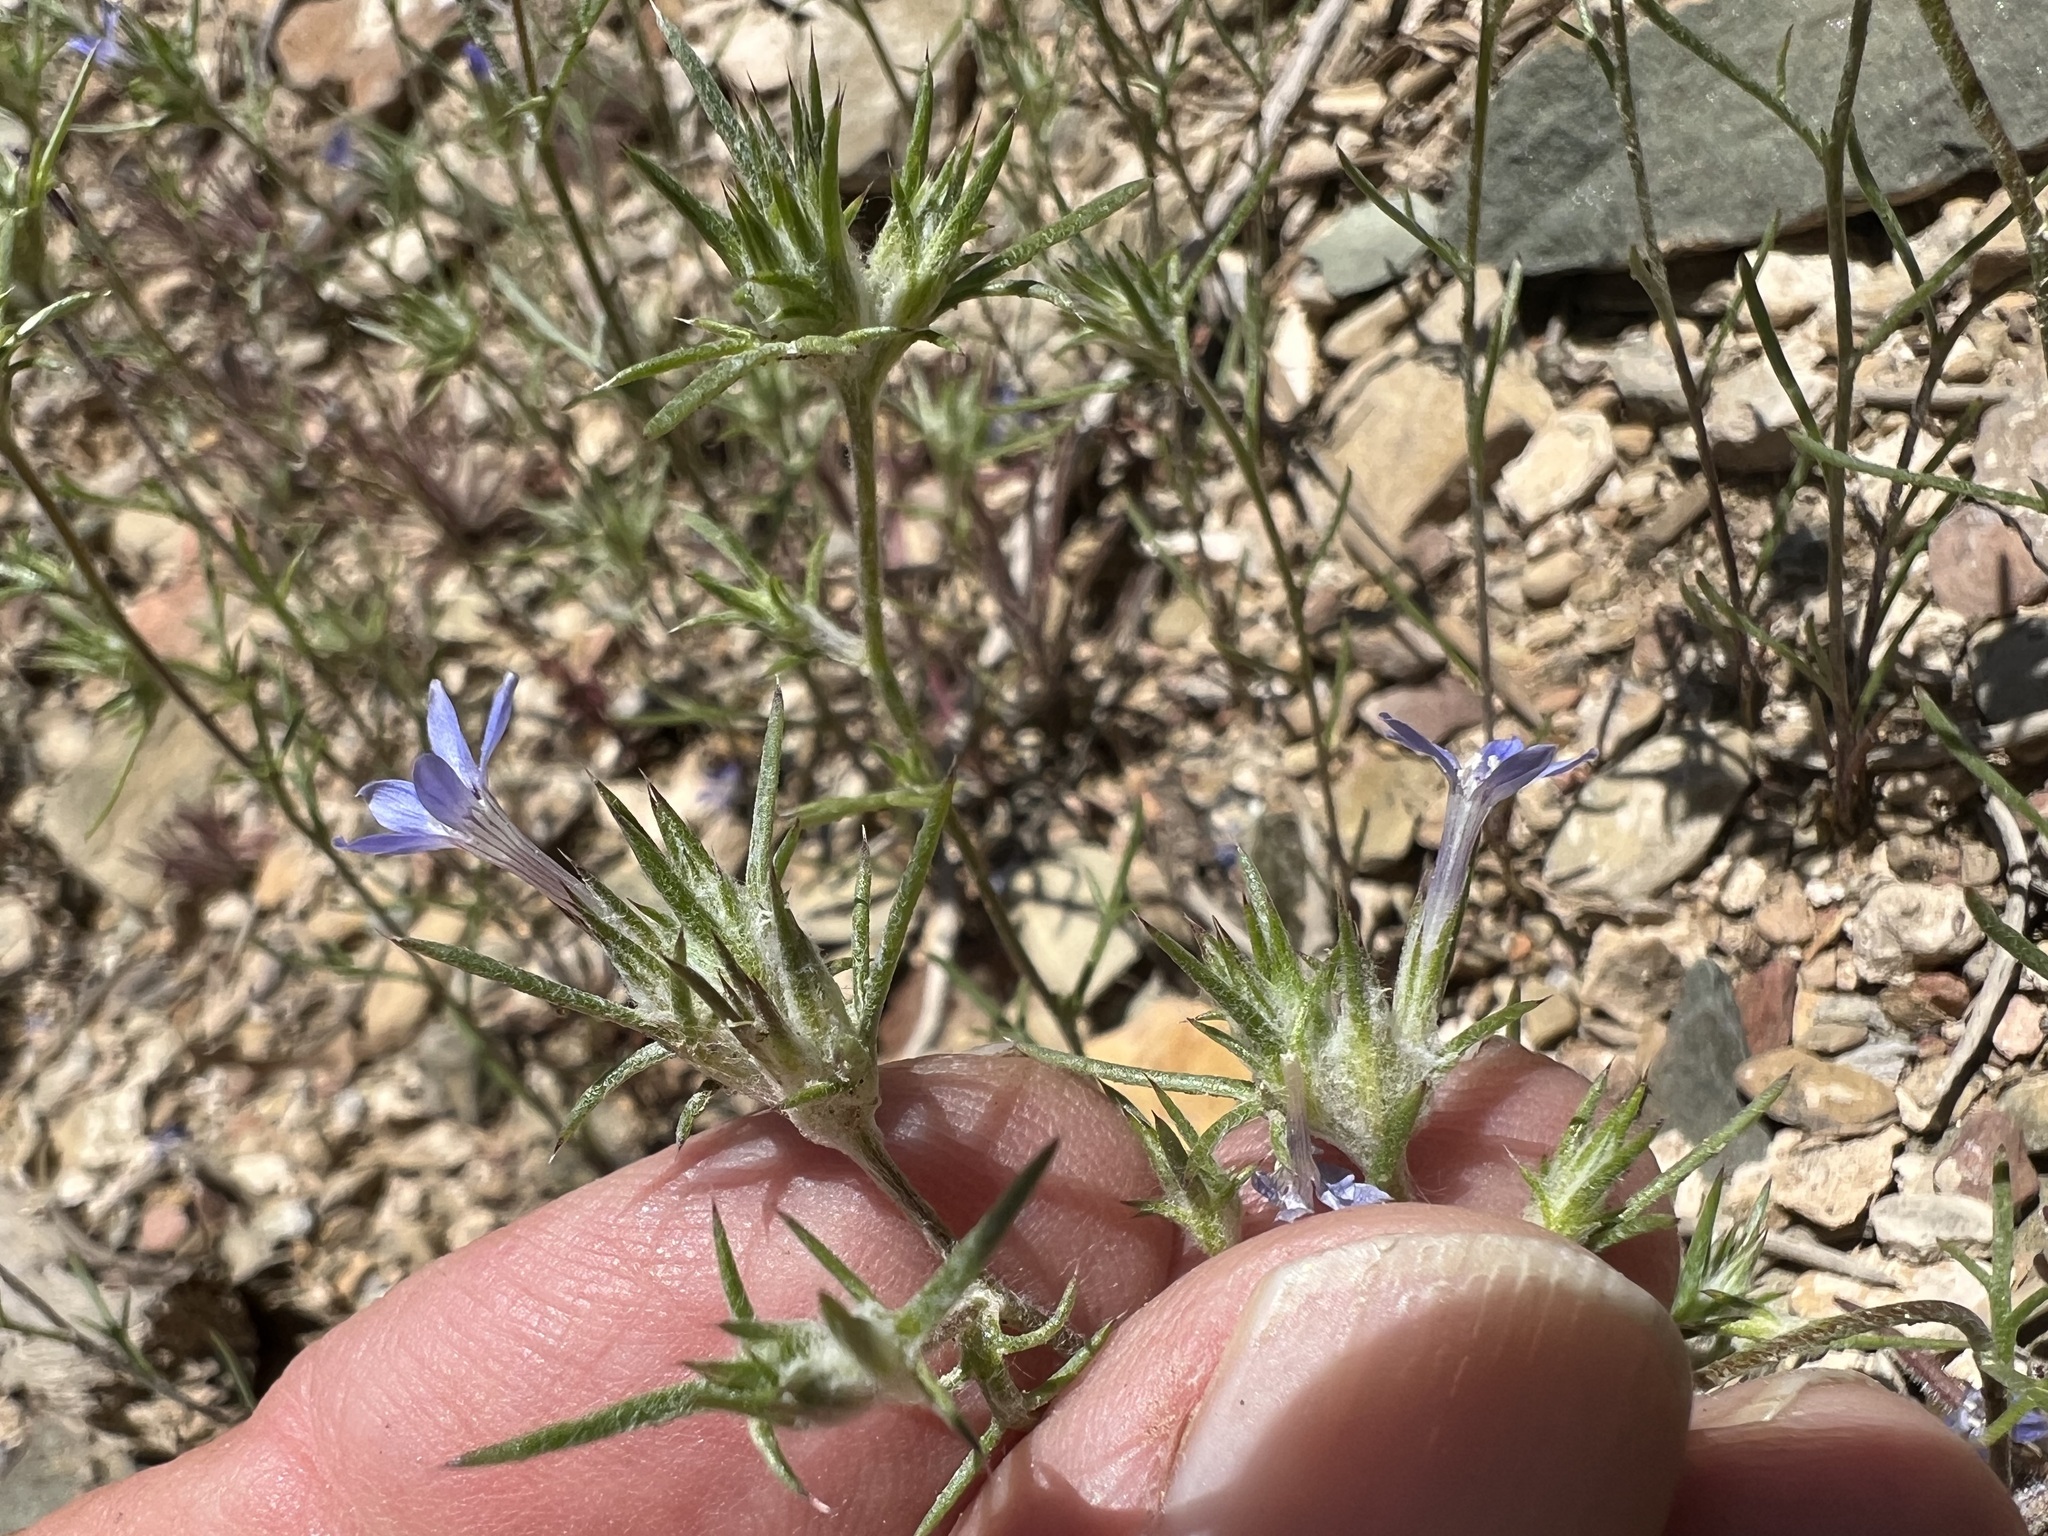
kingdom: Plantae
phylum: Tracheophyta
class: Magnoliopsida
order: Ericales
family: Polemoniaceae
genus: Eriastrum
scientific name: Eriastrum wilcoxii
